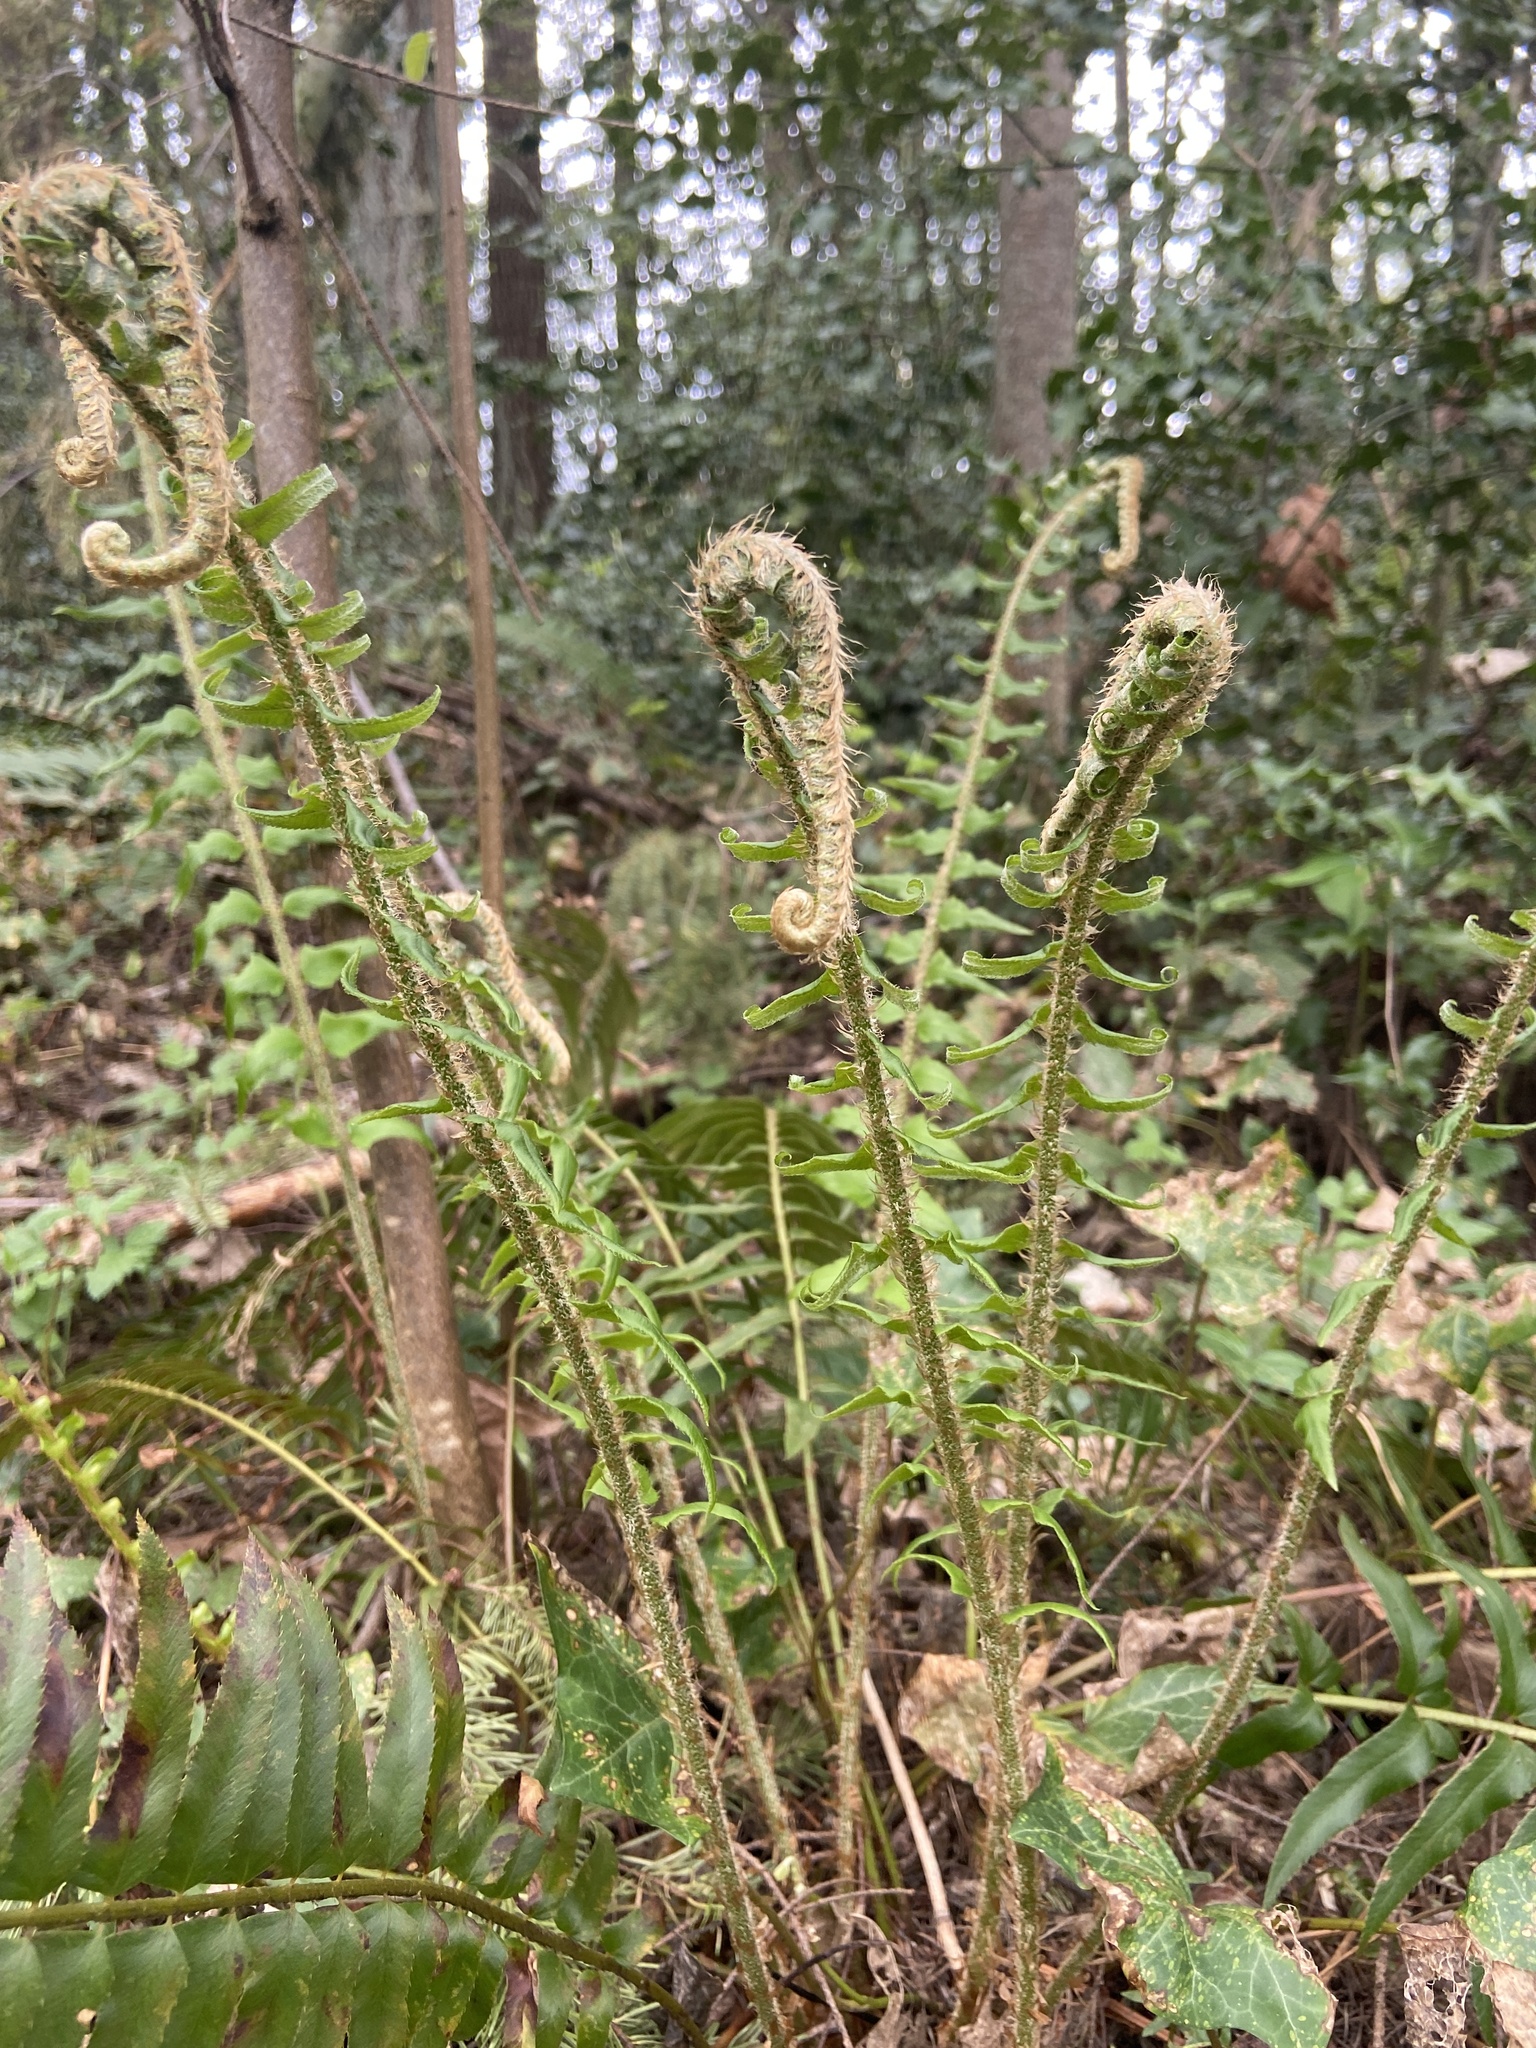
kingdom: Plantae
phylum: Tracheophyta
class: Polypodiopsida
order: Polypodiales
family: Dryopteridaceae
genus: Polystichum
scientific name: Polystichum munitum
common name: Western sword-fern
